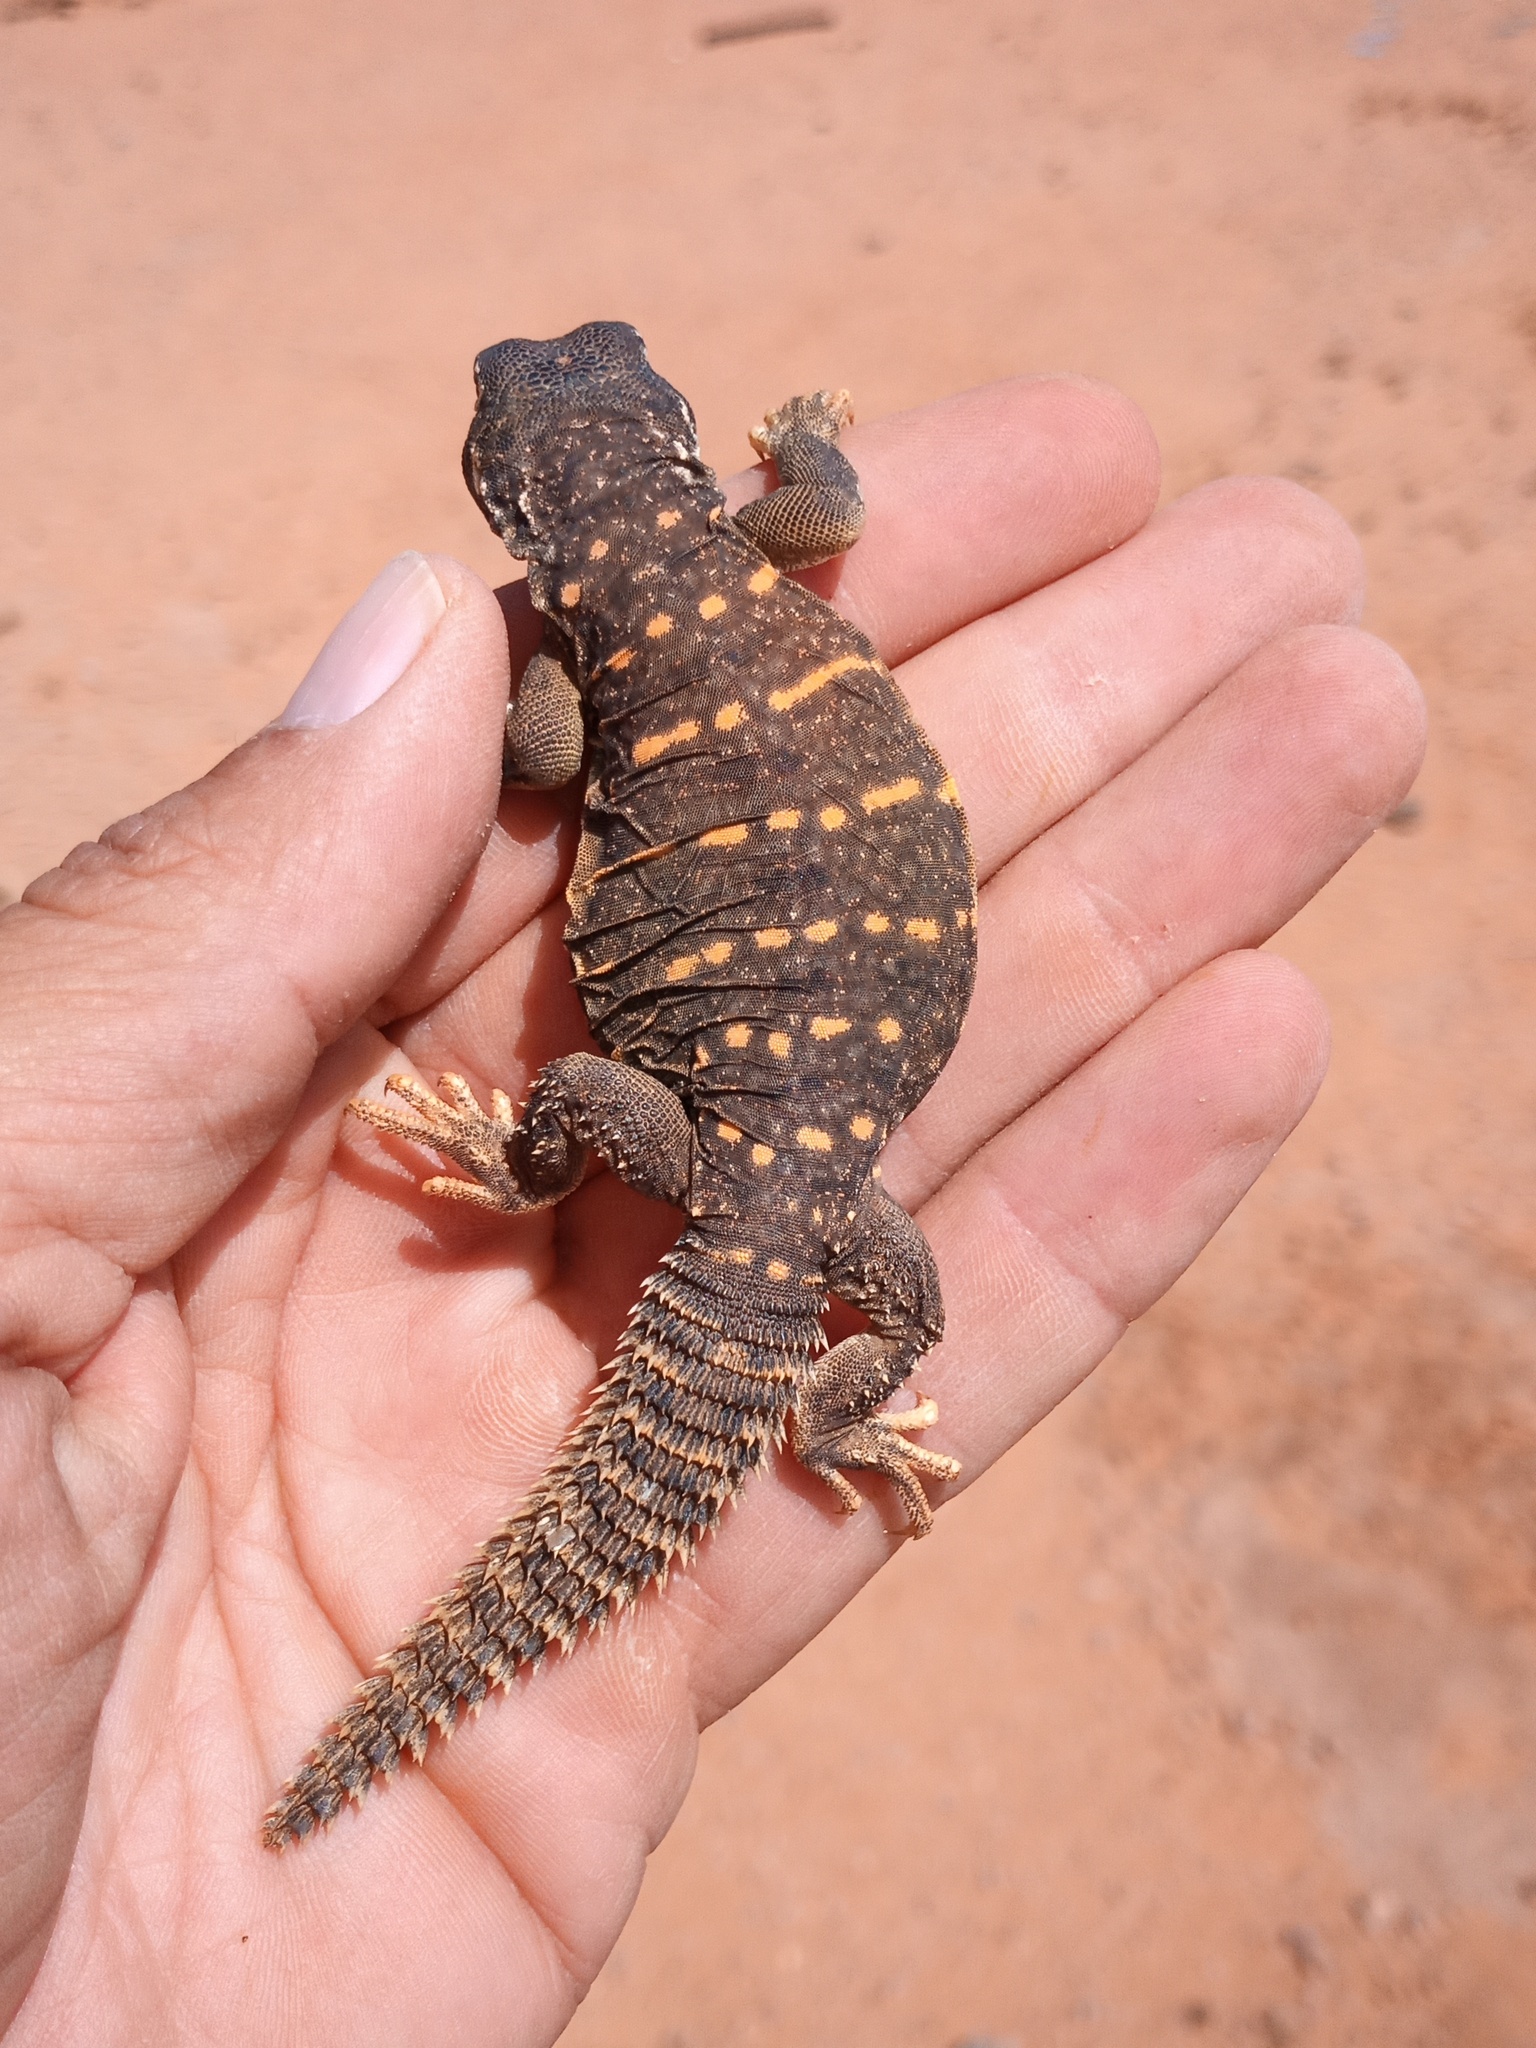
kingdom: Animalia
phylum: Chordata
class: Squamata
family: Agamidae
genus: Uromastyx
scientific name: Uromastyx aegyptia
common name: Egyptian mastigure
